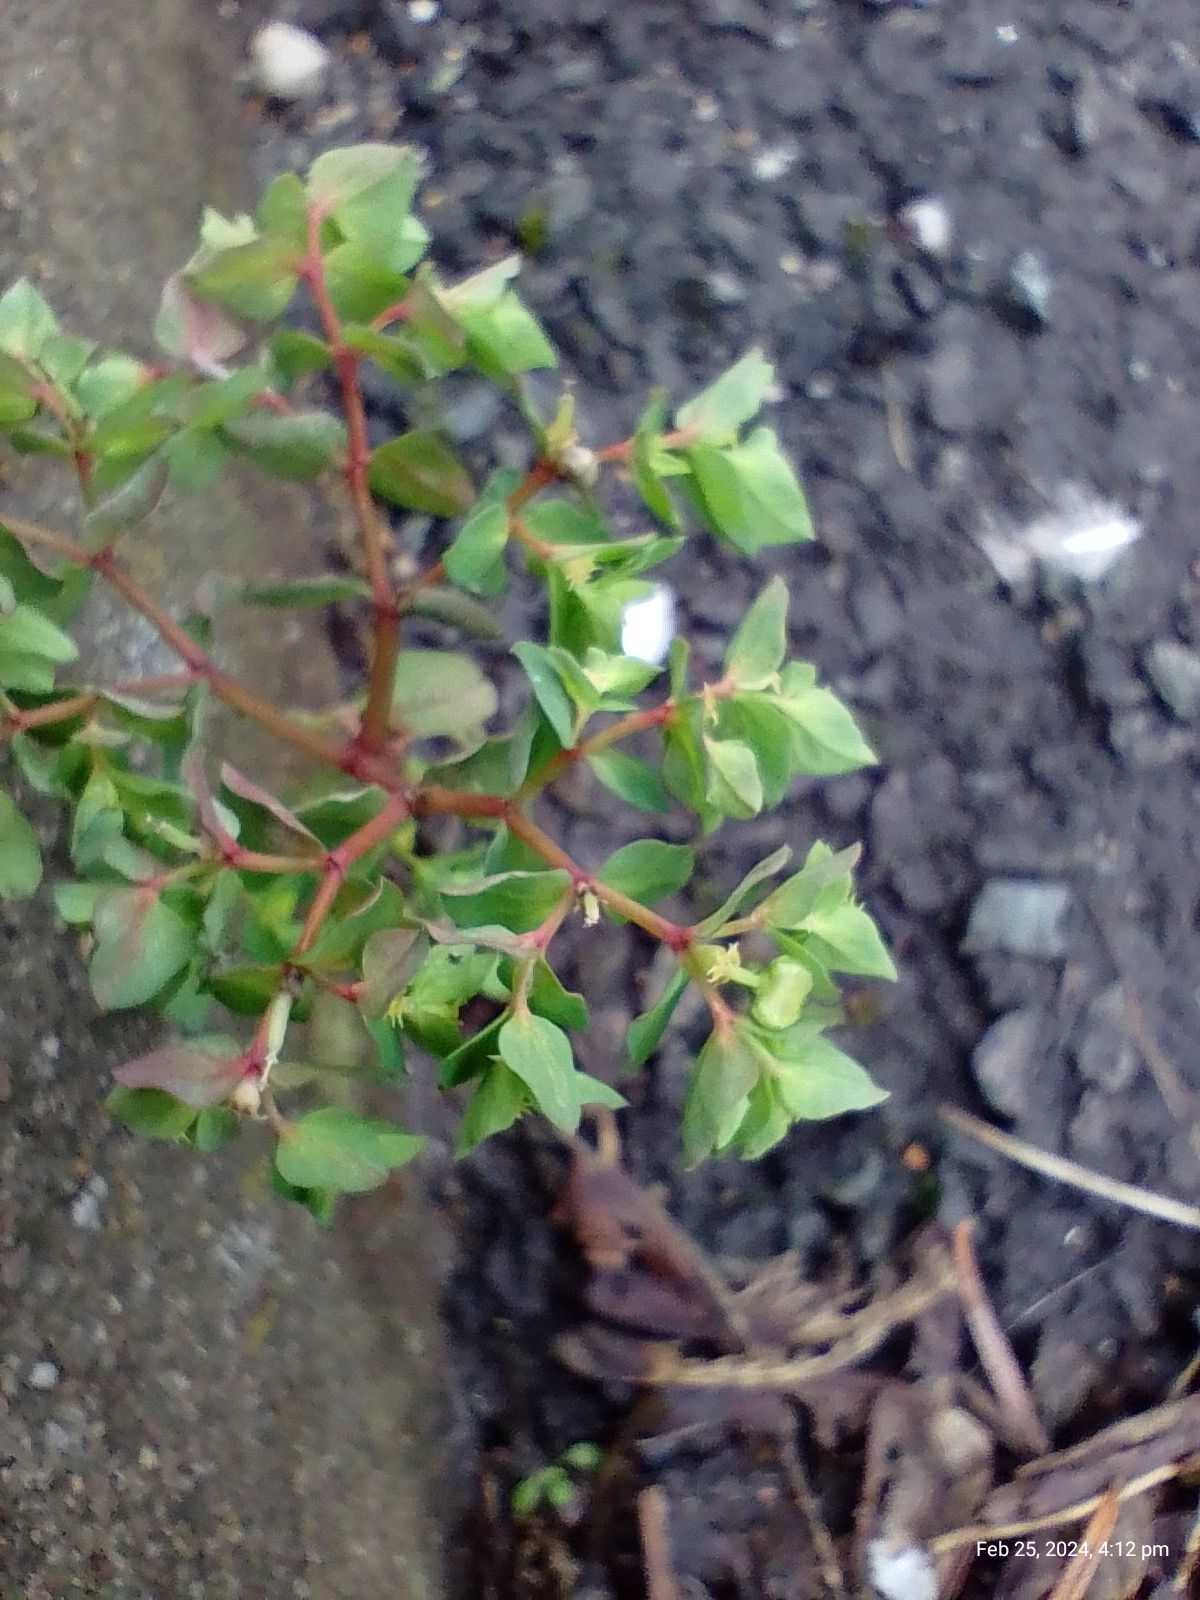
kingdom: Plantae
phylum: Tracheophyta
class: Magnoliopsida
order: Malpighiales
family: Euphorbiaceae
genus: Euphorbia
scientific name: Euphorbia peplus
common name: Petty spurge
